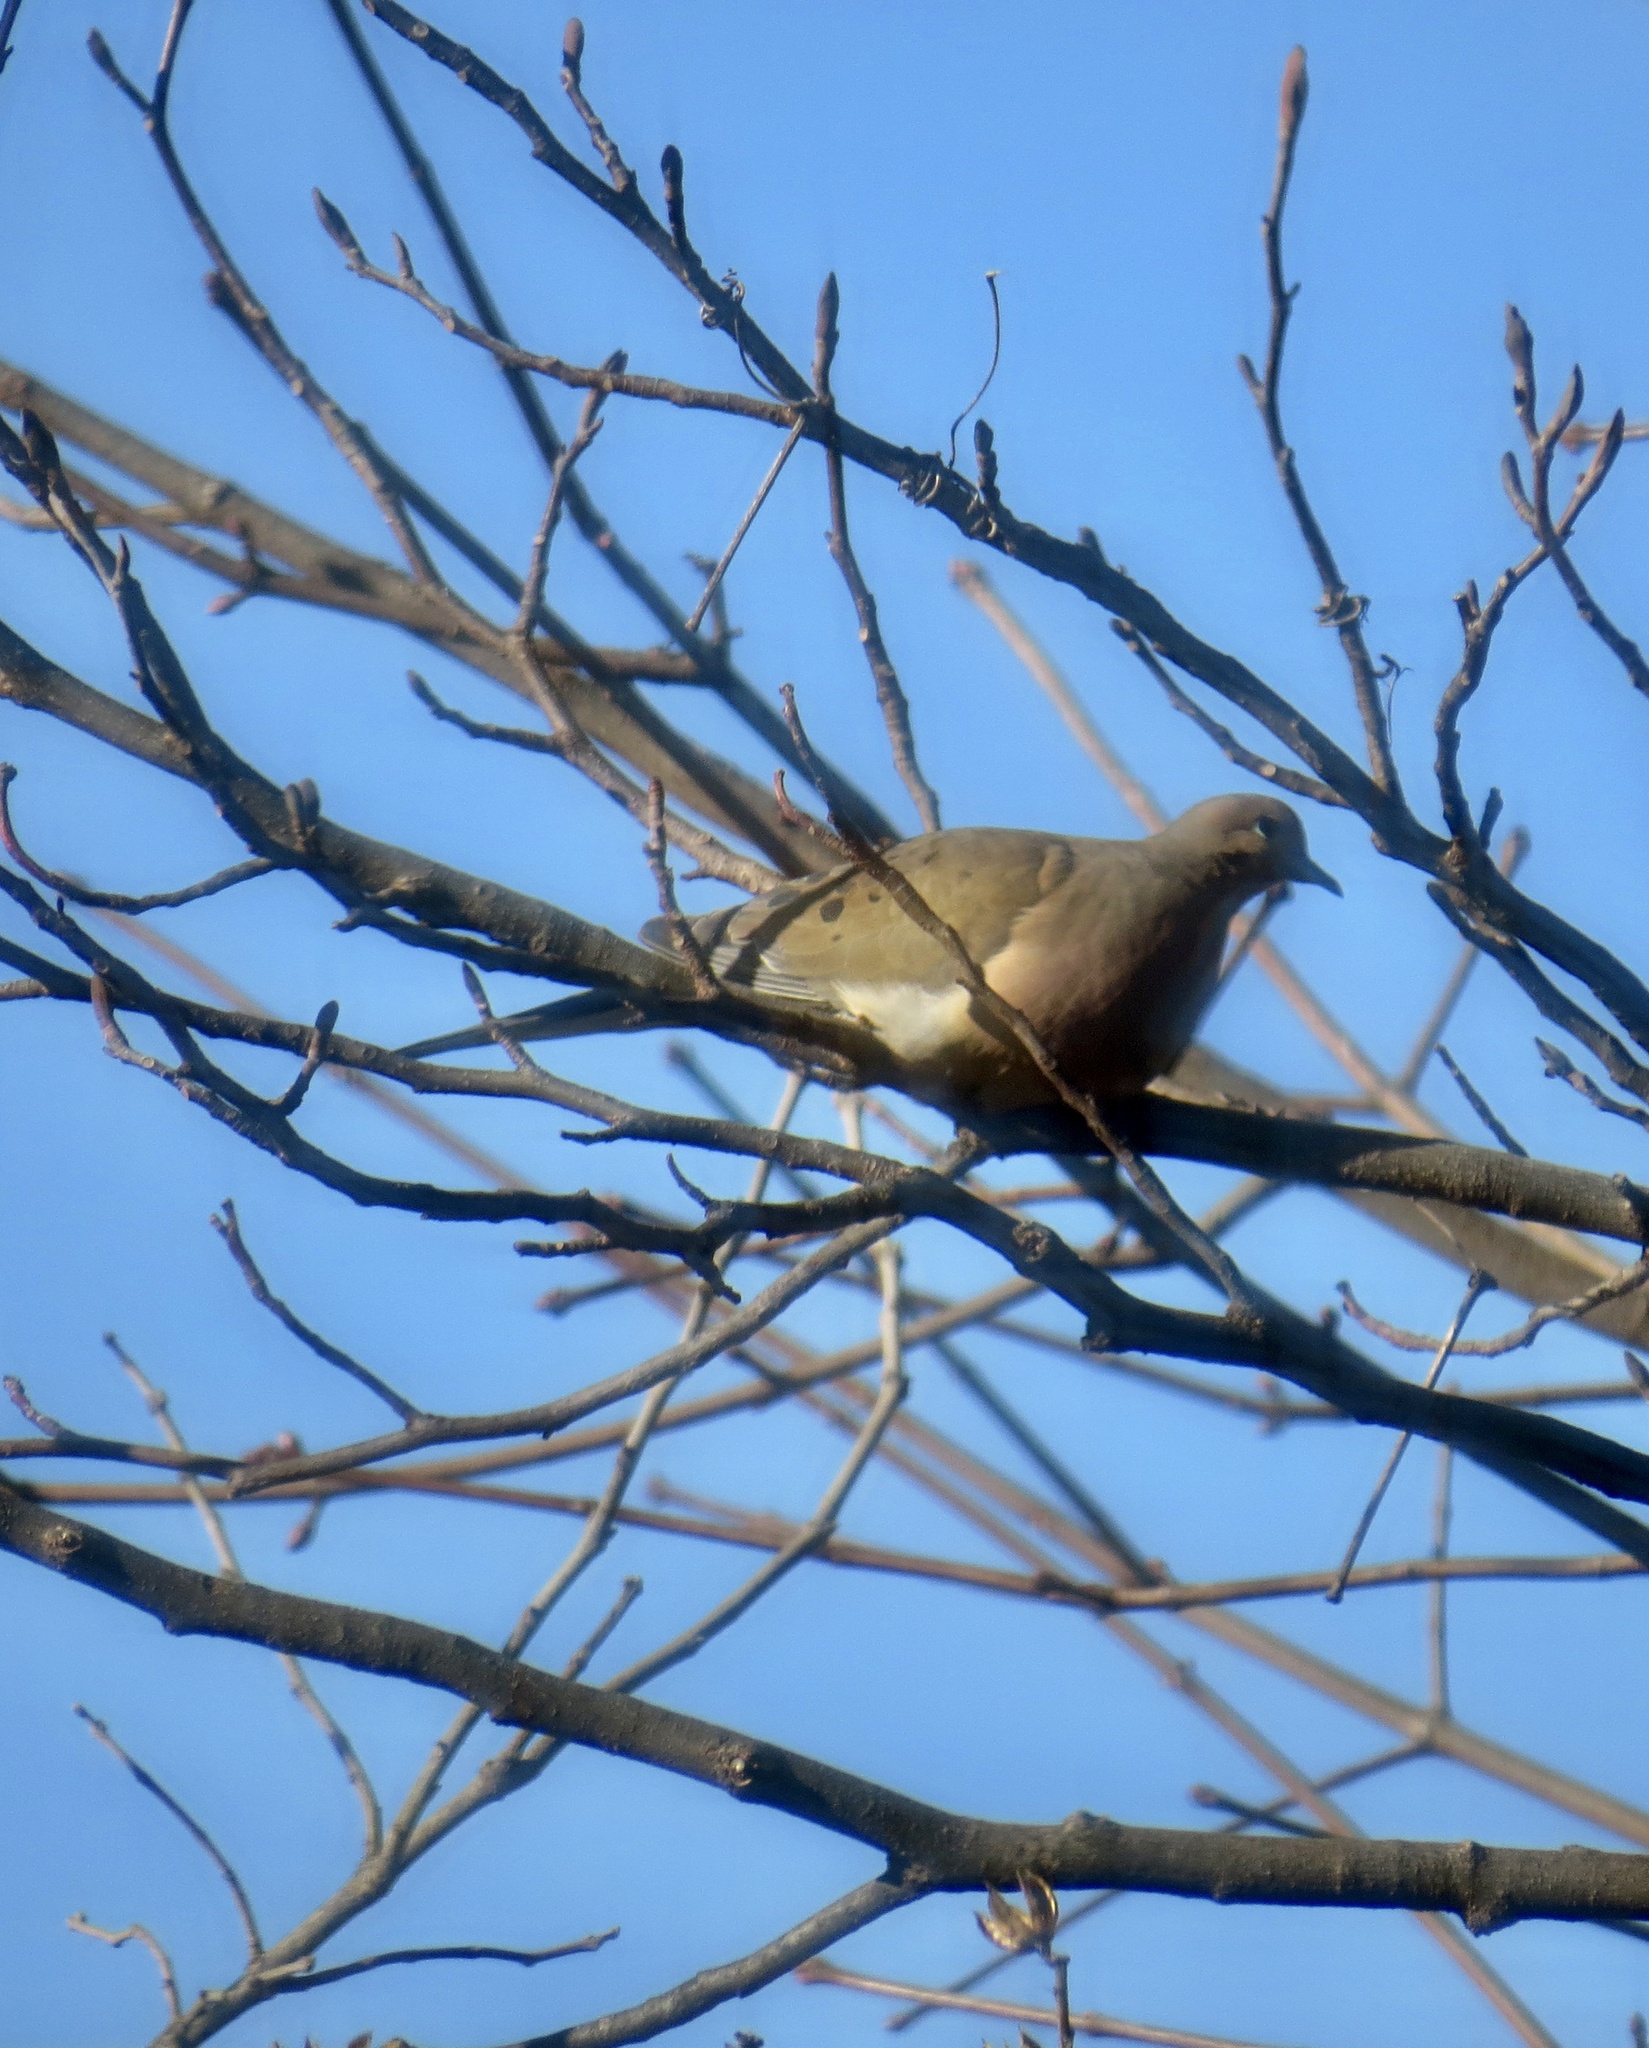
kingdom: Animalia
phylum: Chordata
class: Aves
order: Columbiformes
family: Columbidae
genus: Zenaida
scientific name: Zenaida macroura
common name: Mourning dove
